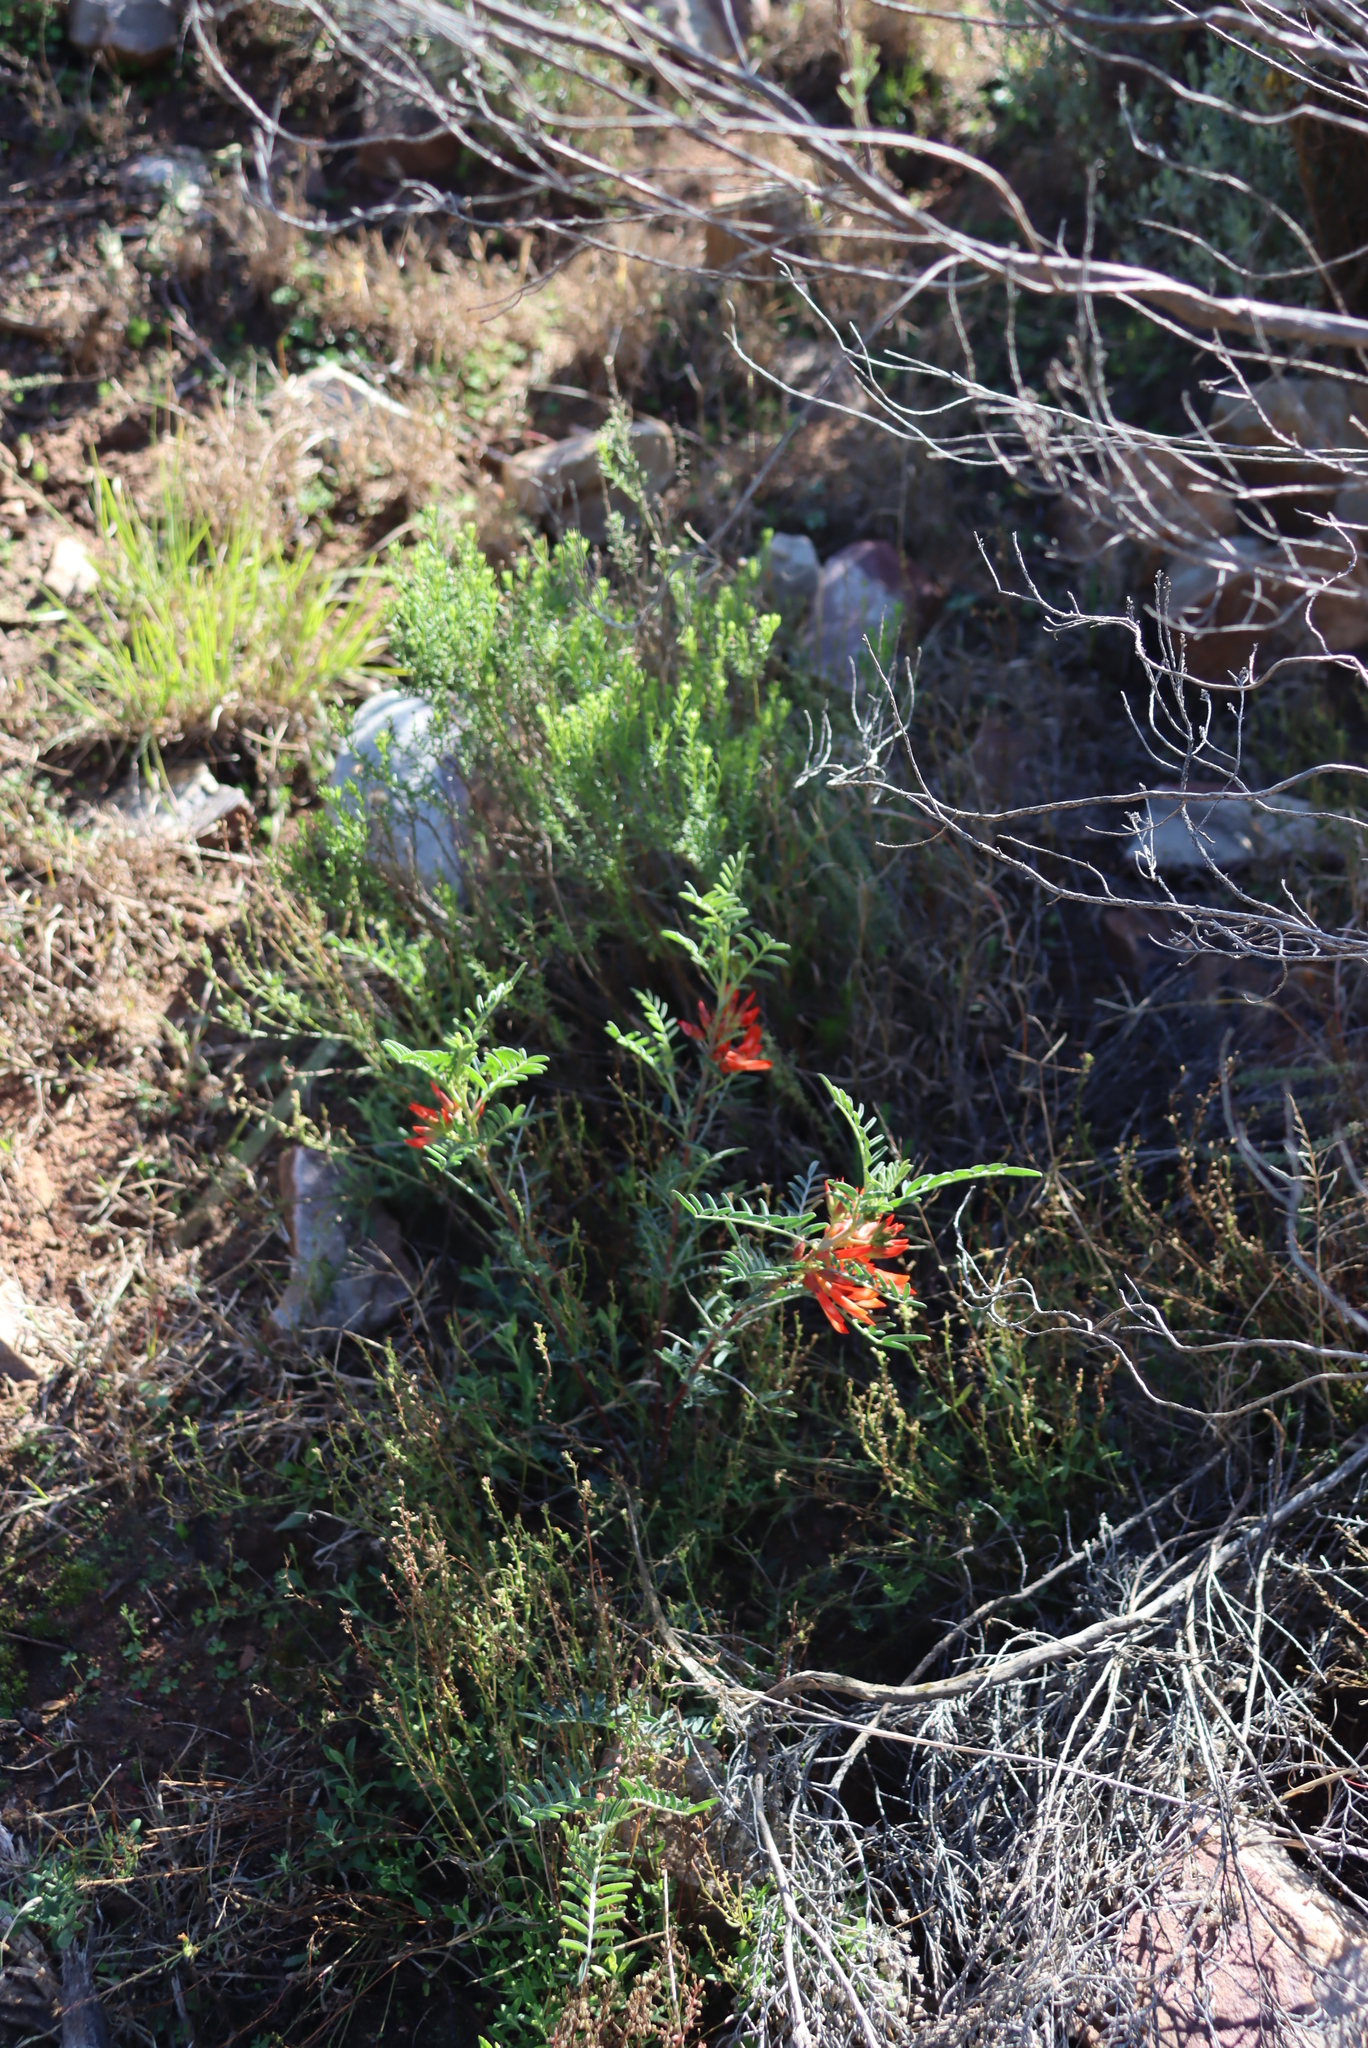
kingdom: Plantae
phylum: Tracheophyta
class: Magnoliopsida
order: Fabales
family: Fabaceae
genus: Lessertia
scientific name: Lessertia frutescens
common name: Balloon-pea
